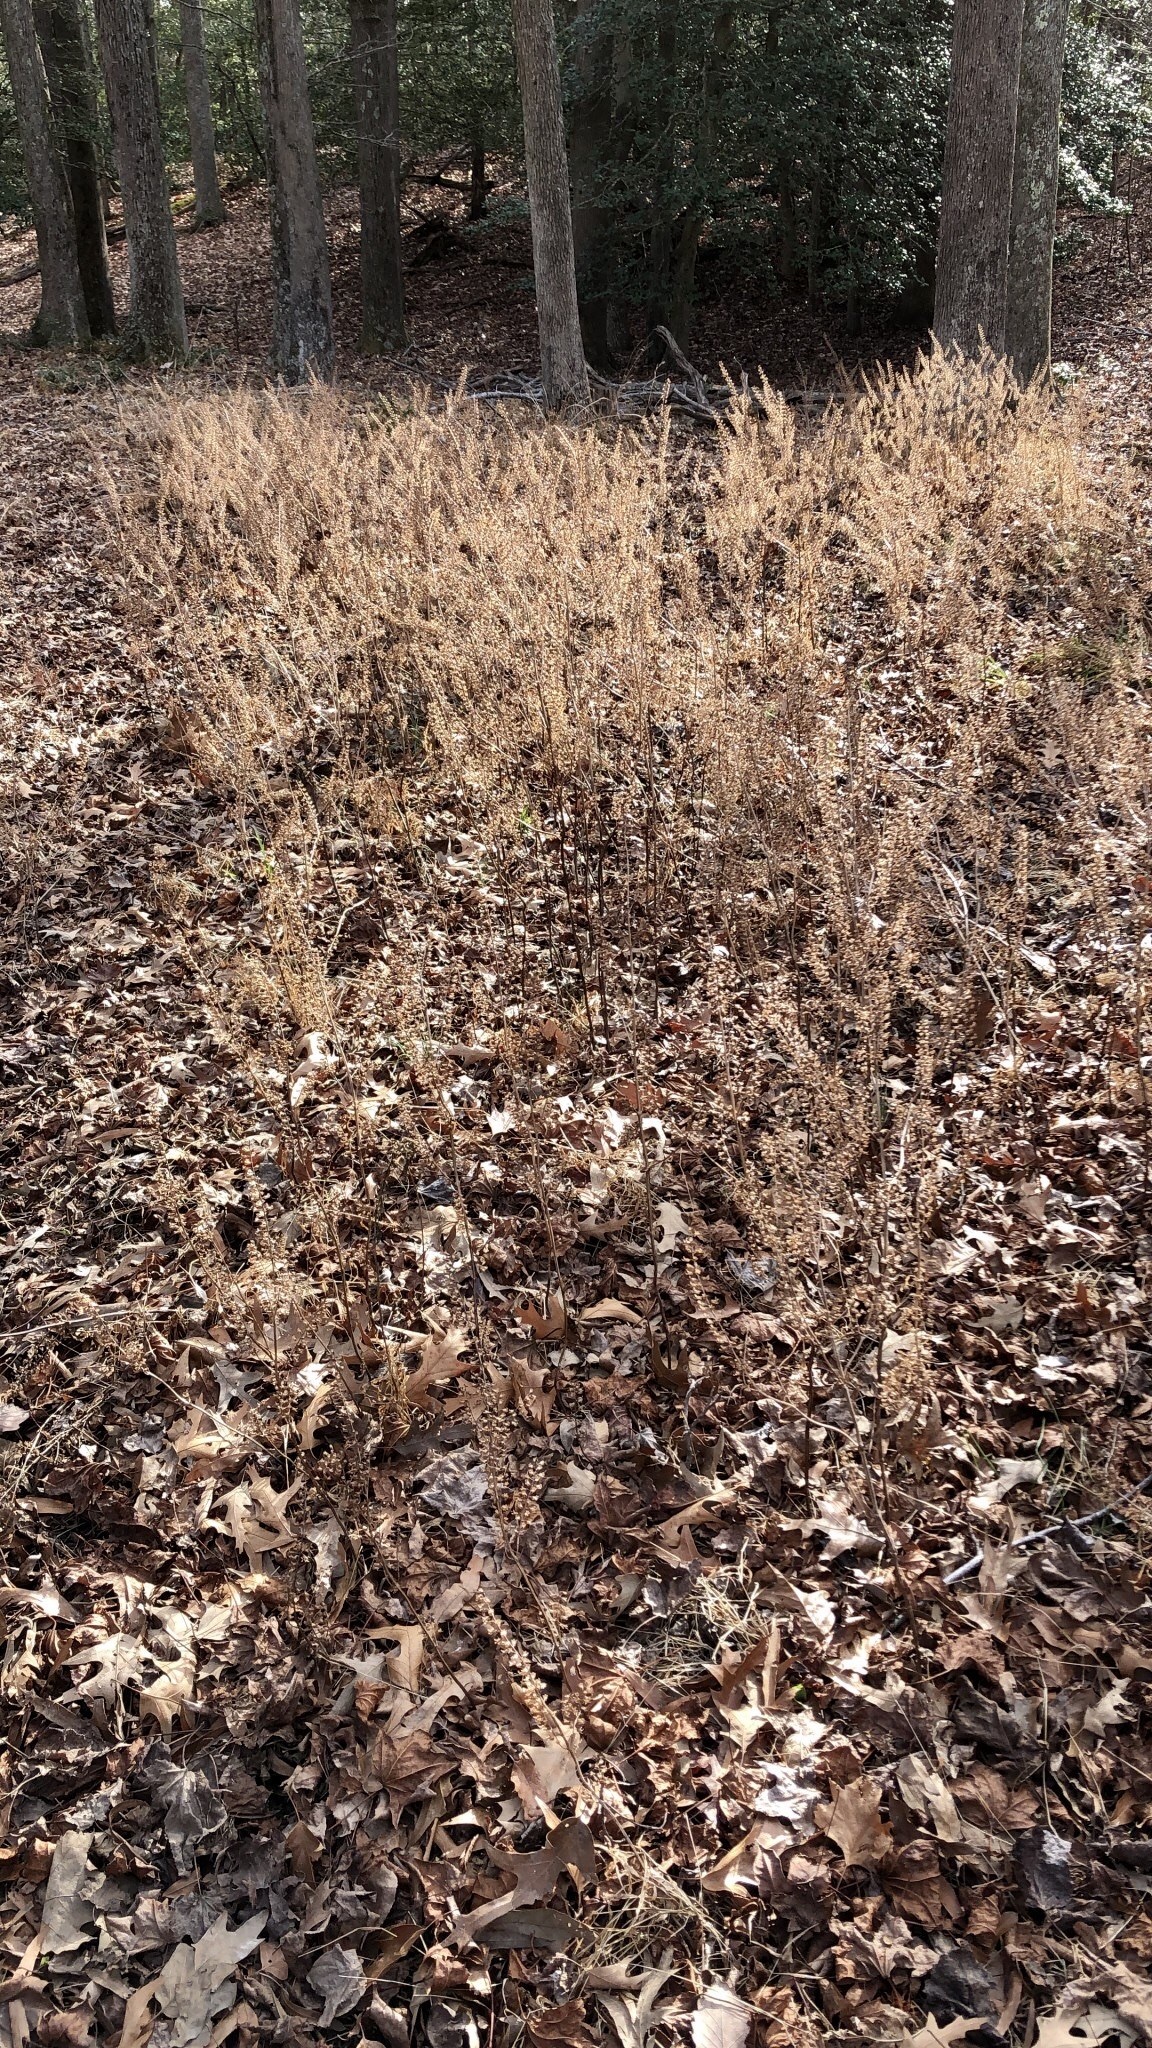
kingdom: Plantae
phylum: Tracheophyta
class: Magnoliopsida
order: Lamiales
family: Lamiaceae
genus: Perilla
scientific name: Perilla frutescens
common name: Perilla
